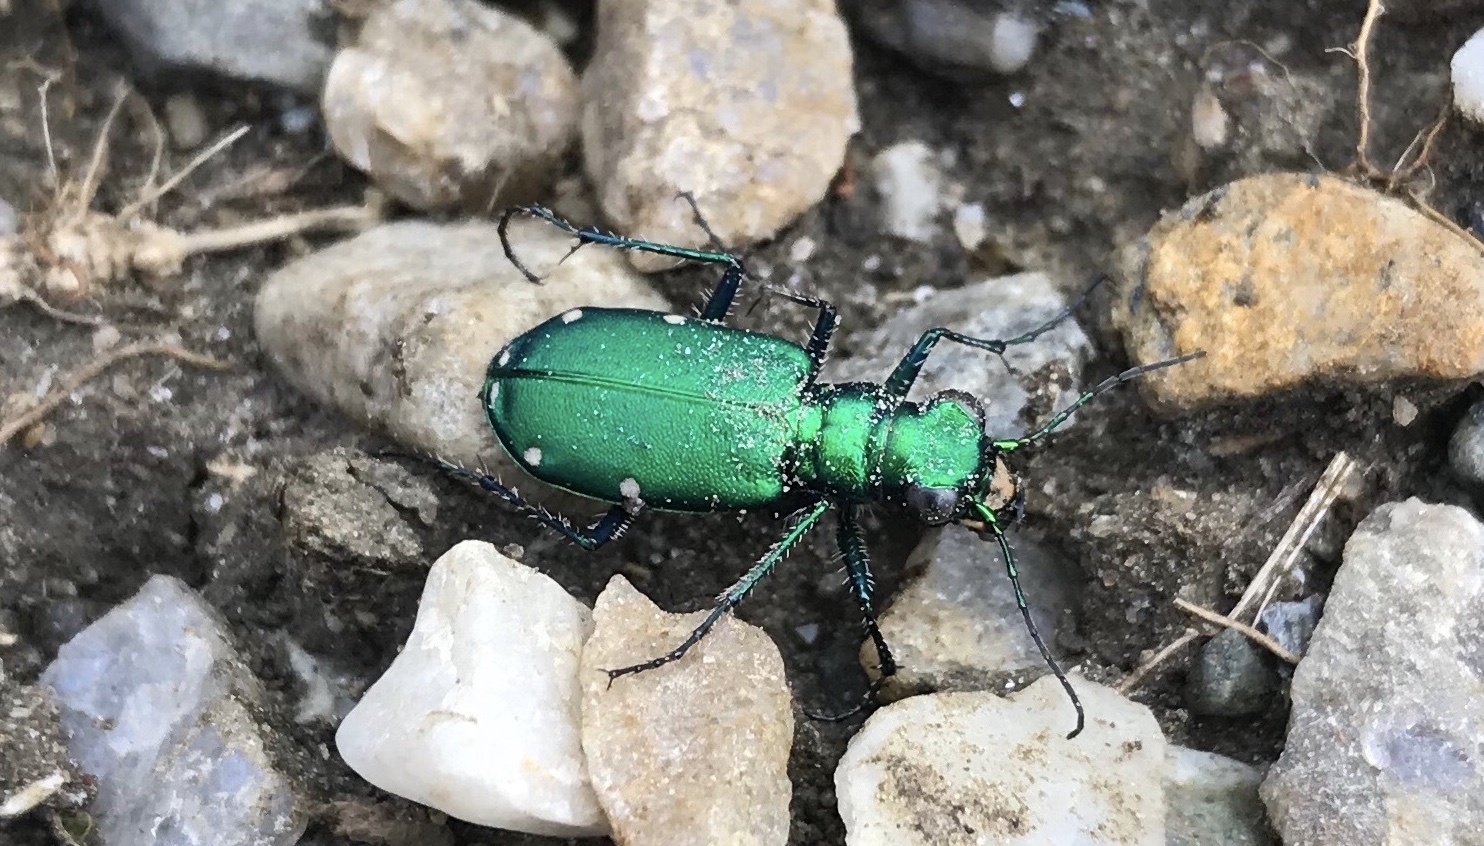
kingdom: Animalia
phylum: Arthropoda
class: Insecta
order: Coleoptera
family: Carabidae
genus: Cicindela
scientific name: Cicindela sexguttata
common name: Six-spotted tiger beetle
